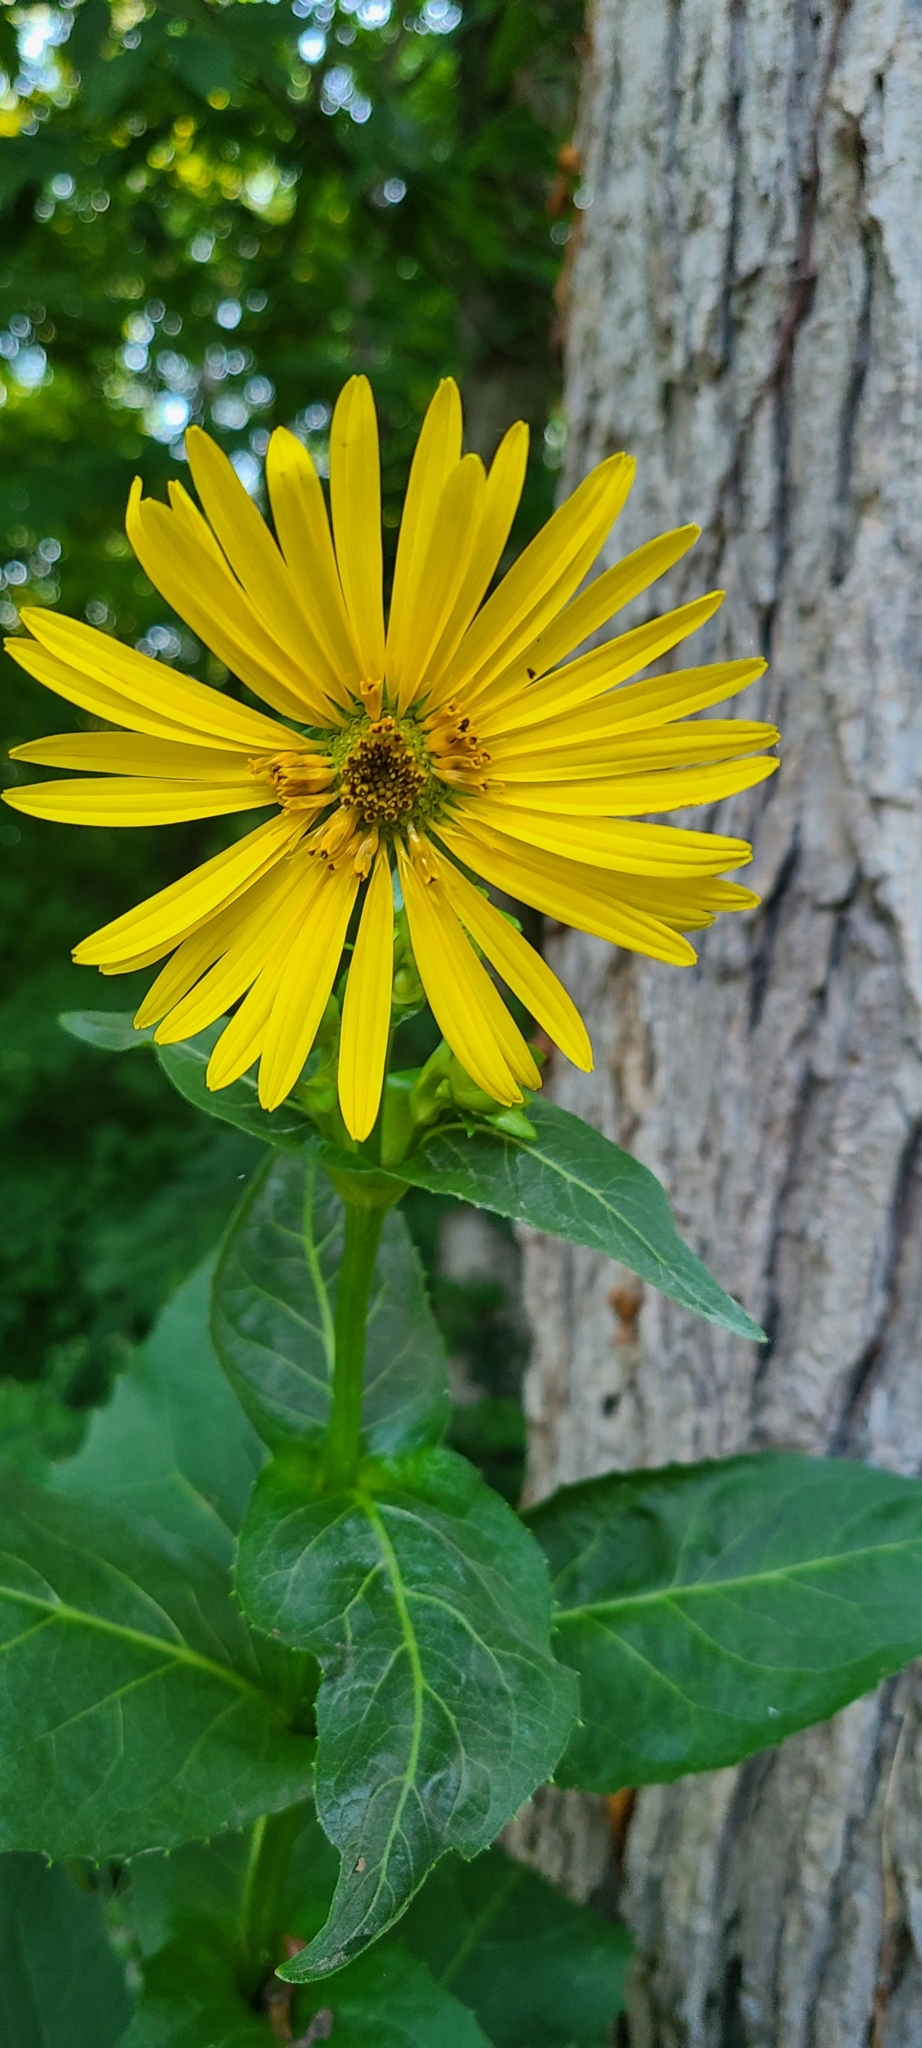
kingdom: Plantae
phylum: Tracheophyta
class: Magnoliopsida
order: Asterales
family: Asteraceae
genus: Silphium
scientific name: Silphium perfoliatum
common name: Cup-plant
